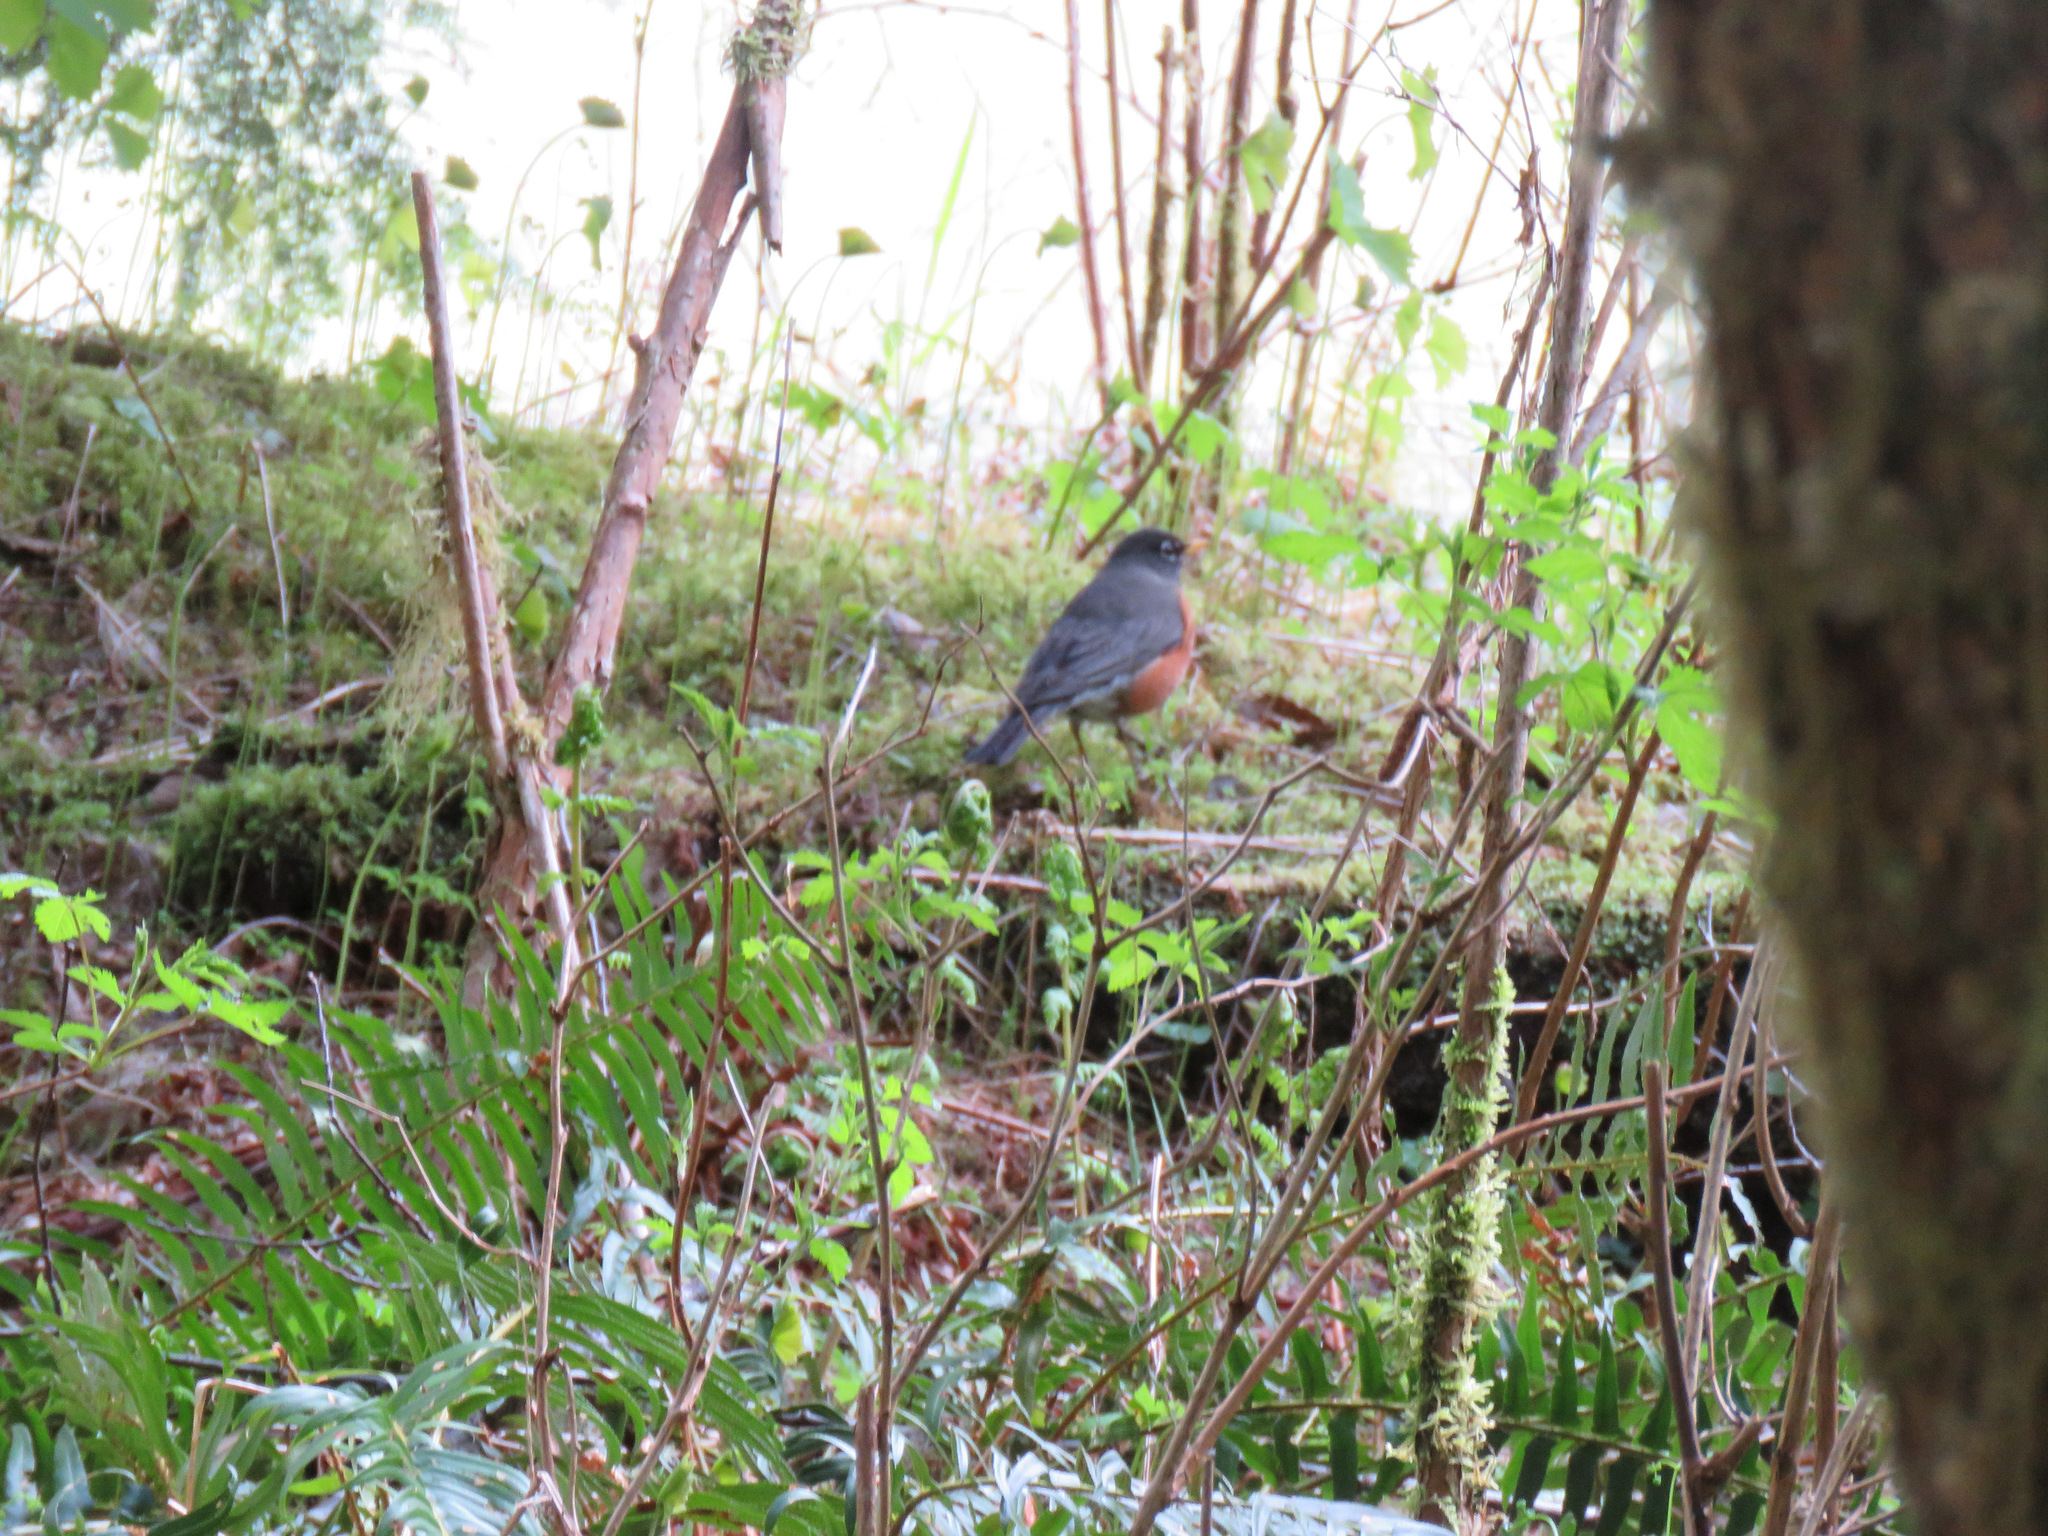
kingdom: Animalia
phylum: Chordata
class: Aves
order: Passeriformes
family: Turdidae
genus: Turdus
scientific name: Turdus migratorius
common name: American robin
